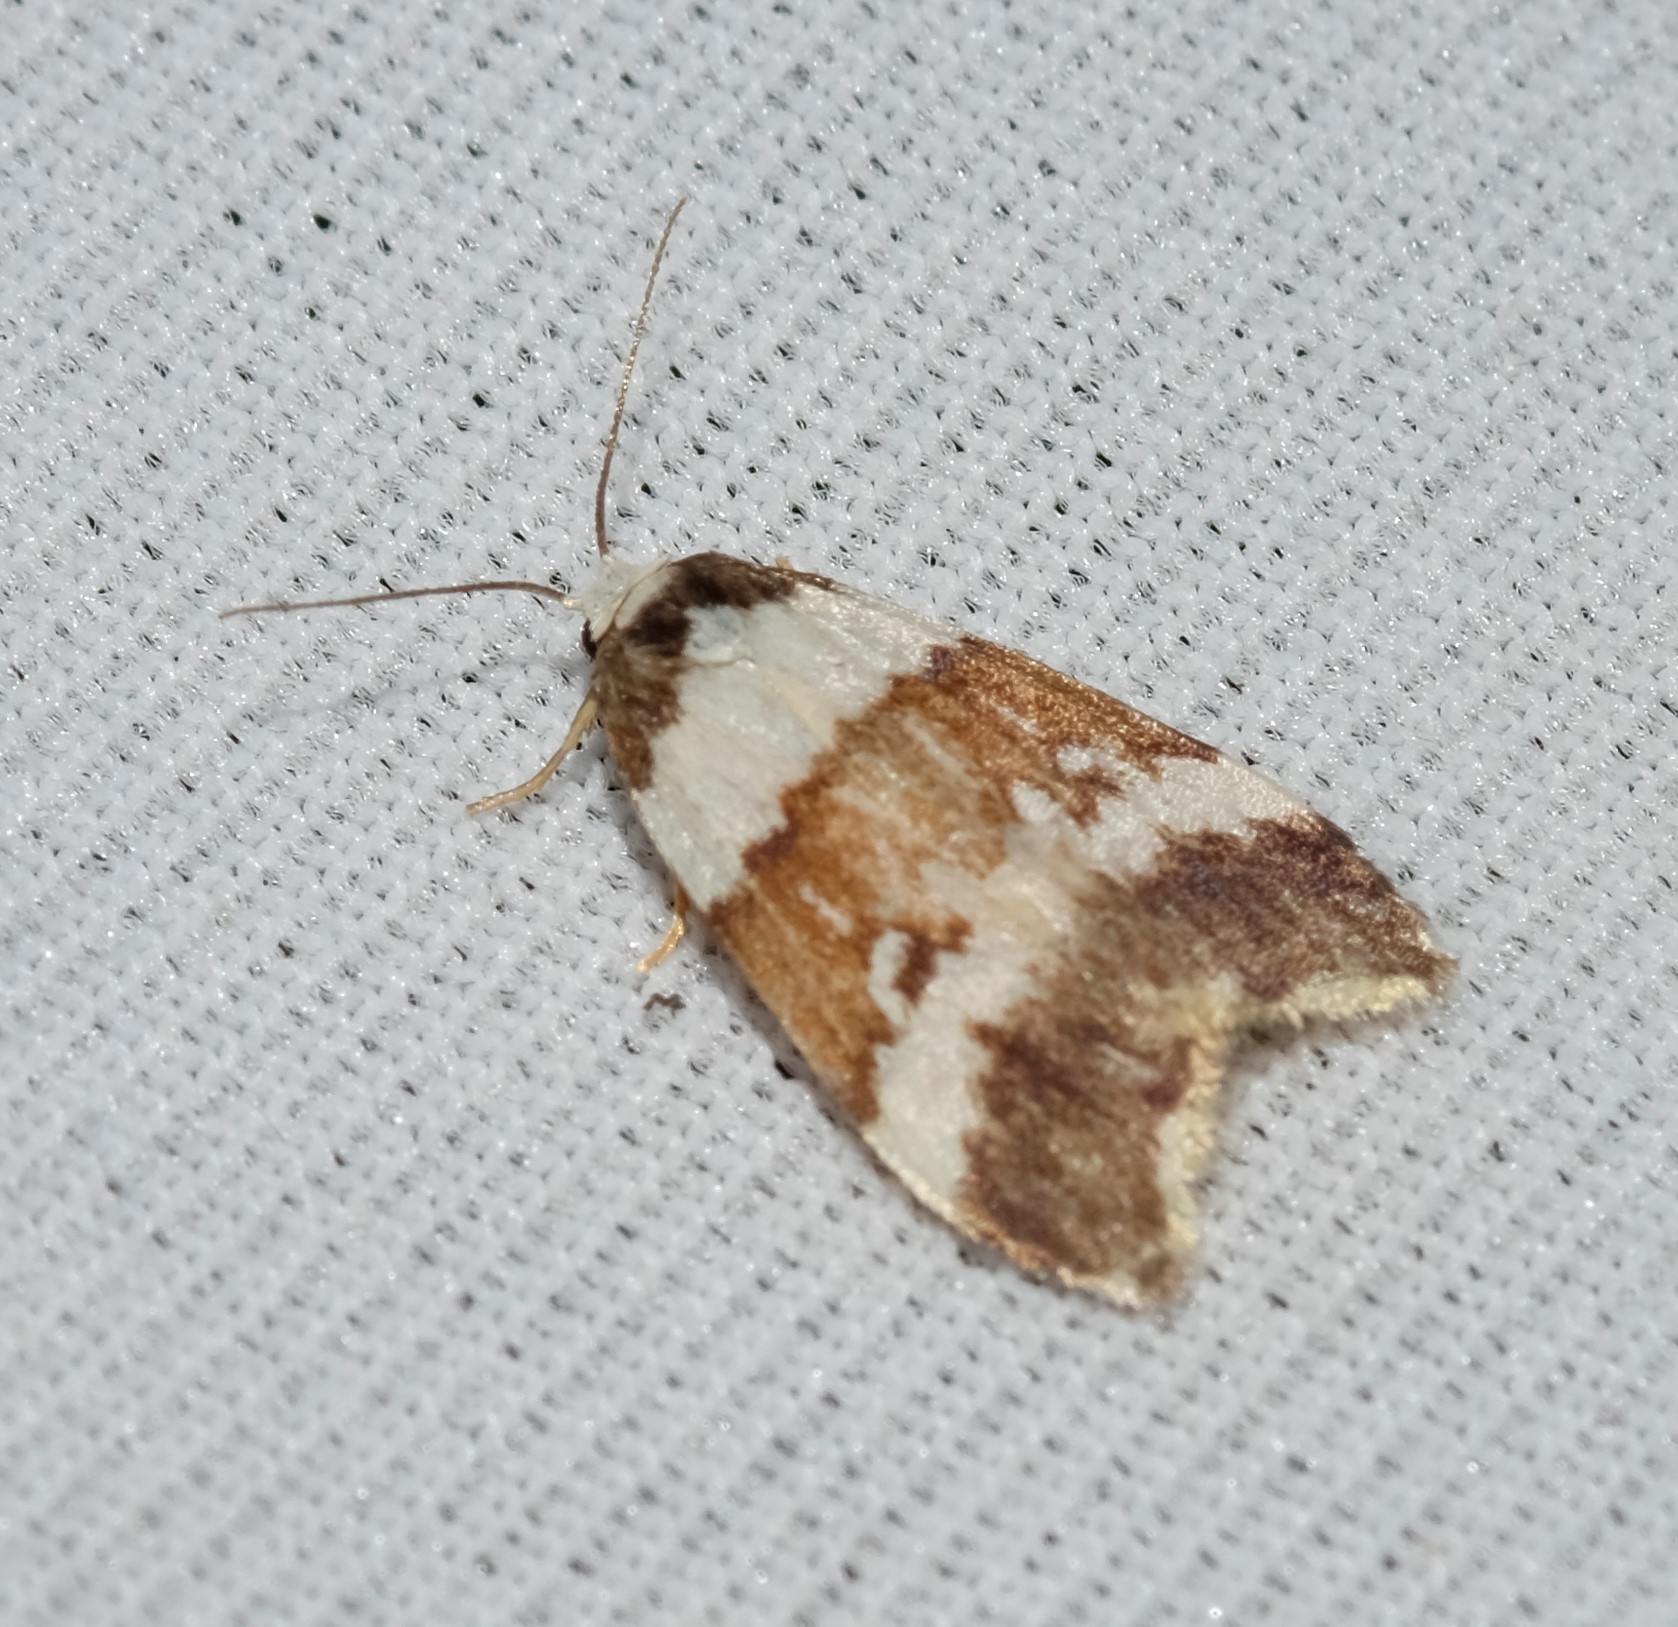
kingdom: Animalia
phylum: Arthropoda
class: Insecta
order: Lepidoptera
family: Erebidae
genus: Halone
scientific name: Halone sejuncta
